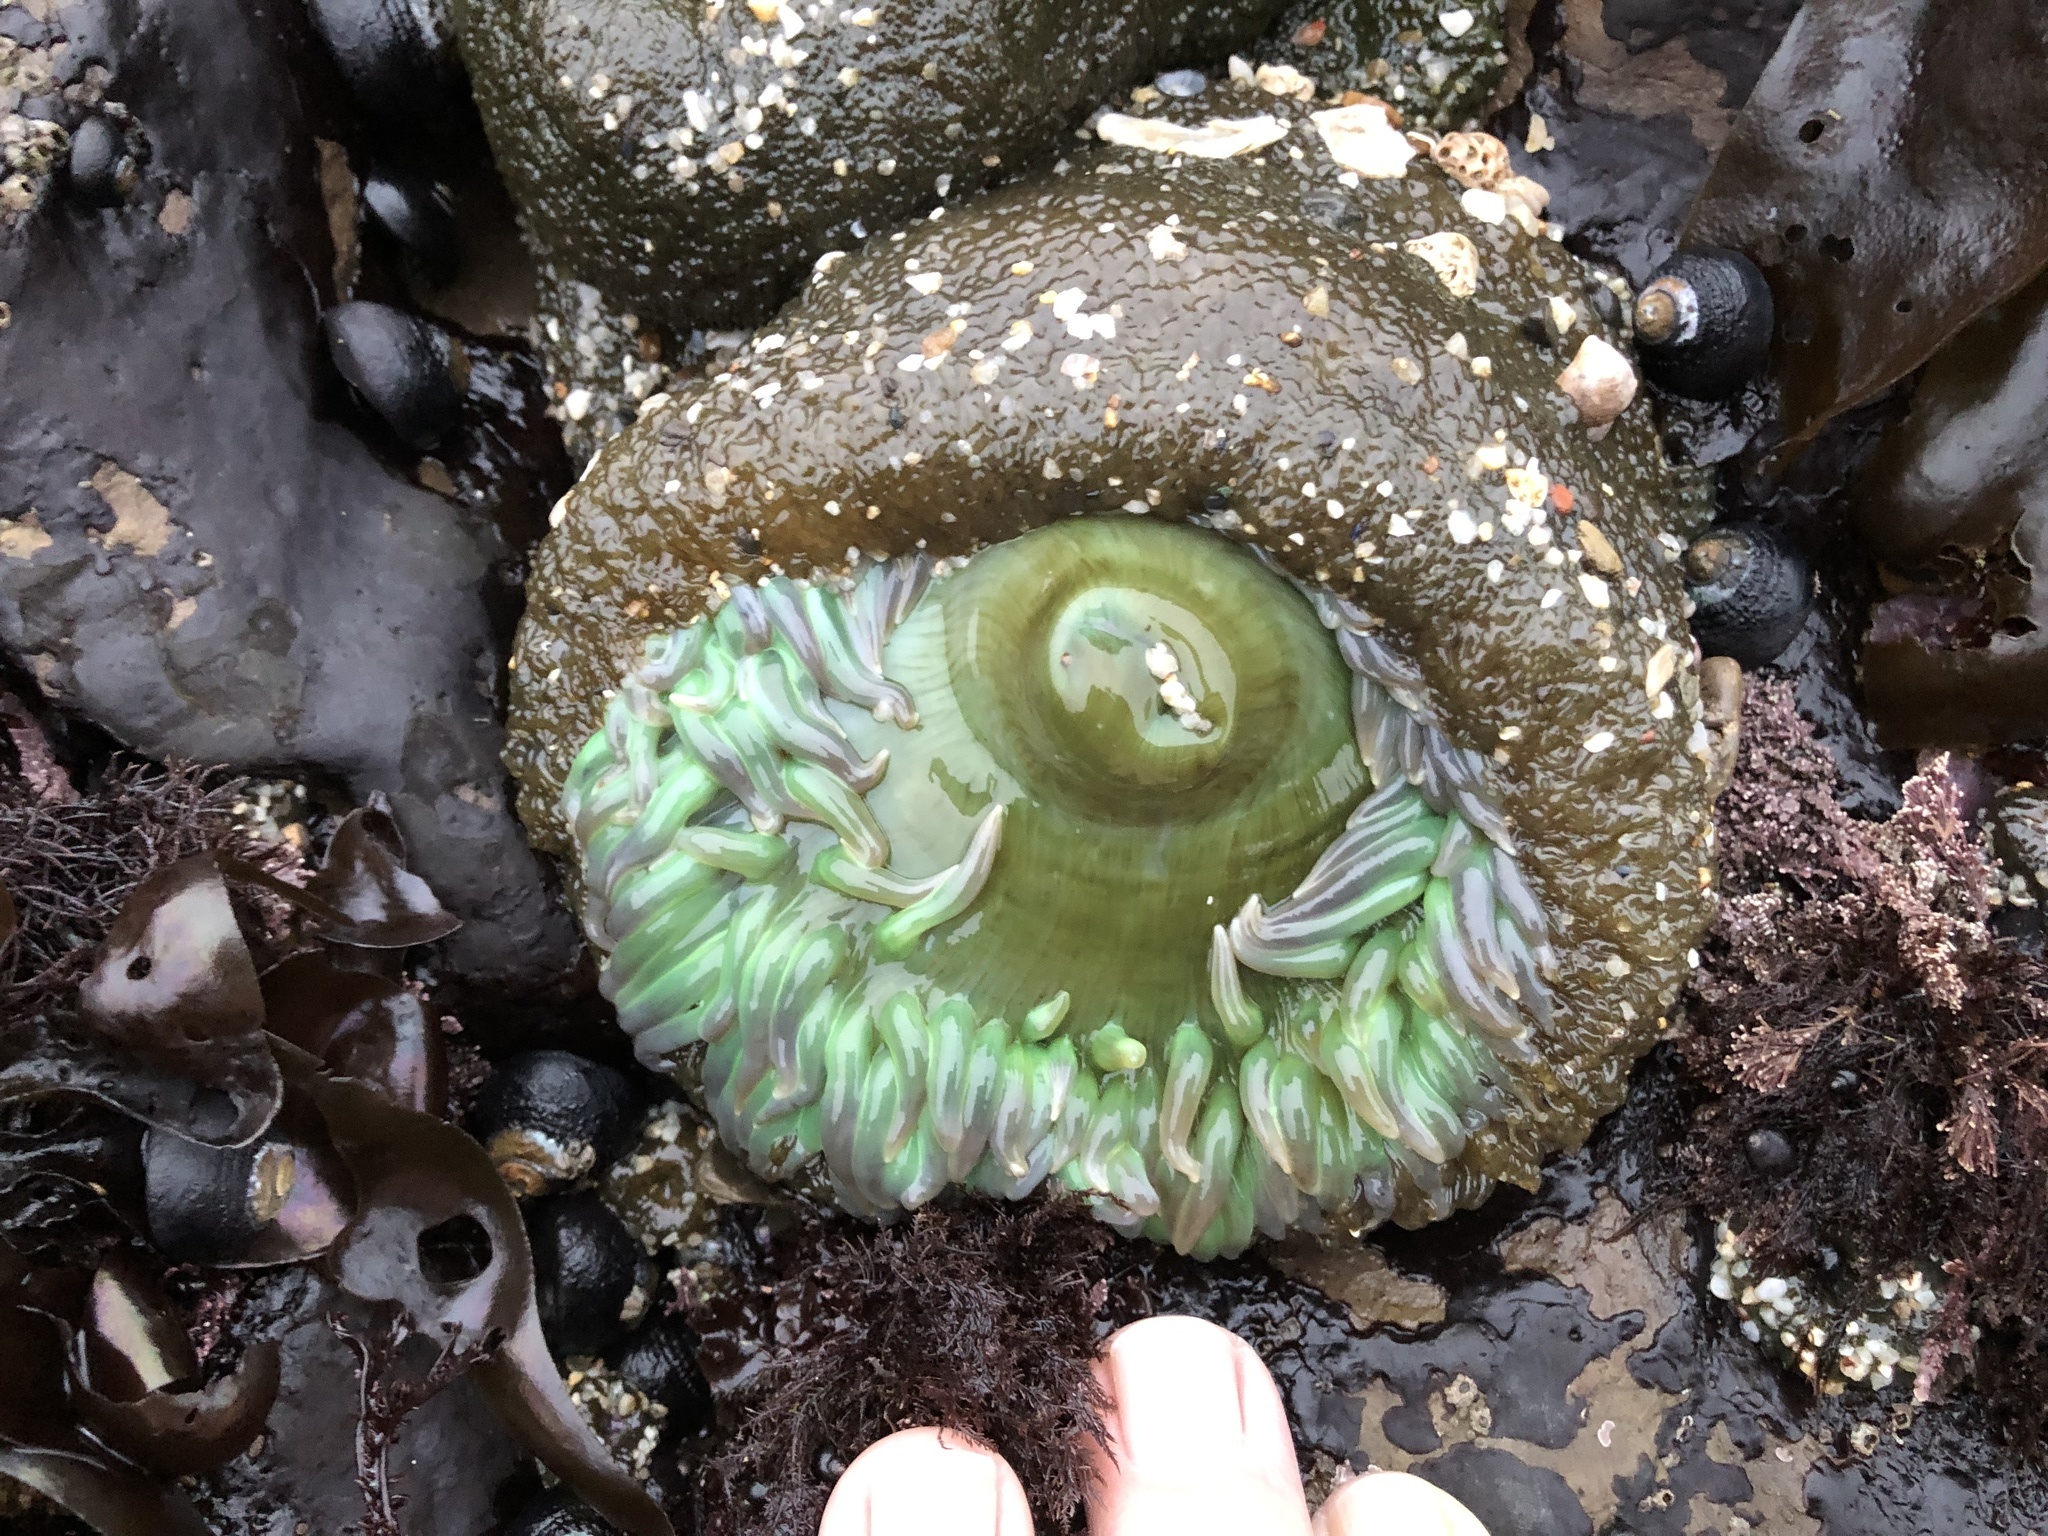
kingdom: Animalia
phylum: Cnidaria
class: Anthozoa
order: Actiniaria
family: Actiniidae
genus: Anthopleura
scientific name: Anthopleura xanthogrammica
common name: Giant green anemone
